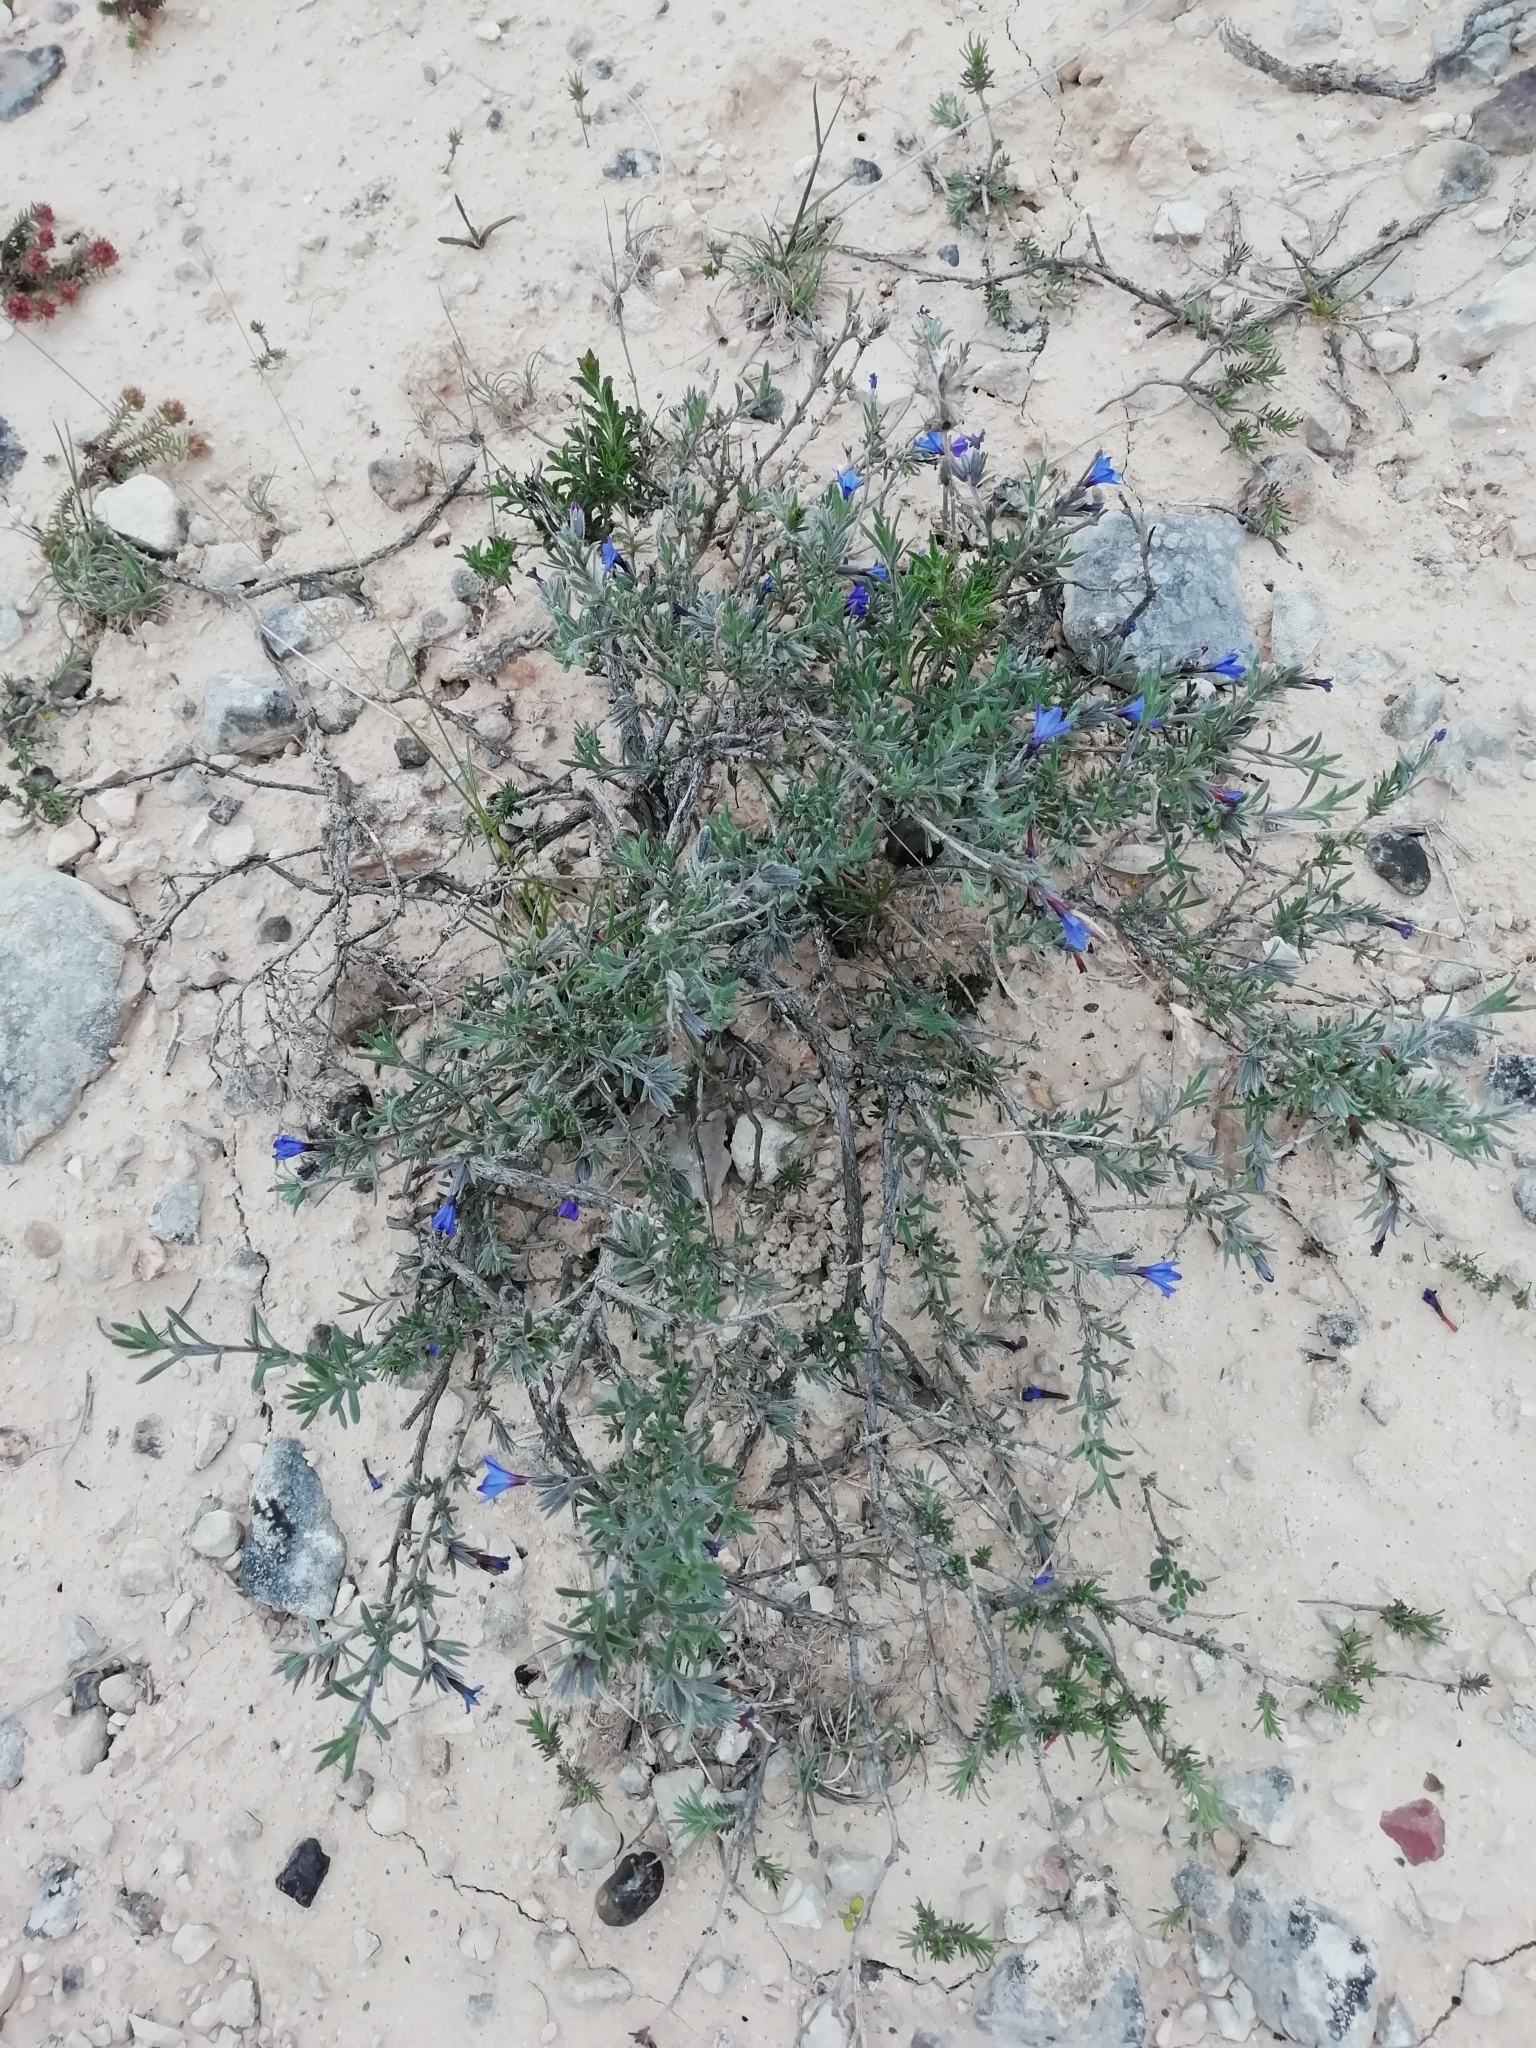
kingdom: Plantae
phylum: Tracheophyta
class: Magnoliopsida
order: Boraginales
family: Boraginaceae
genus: Lithodora
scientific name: Lithodora fruticosa
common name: Shrubby gromwell
